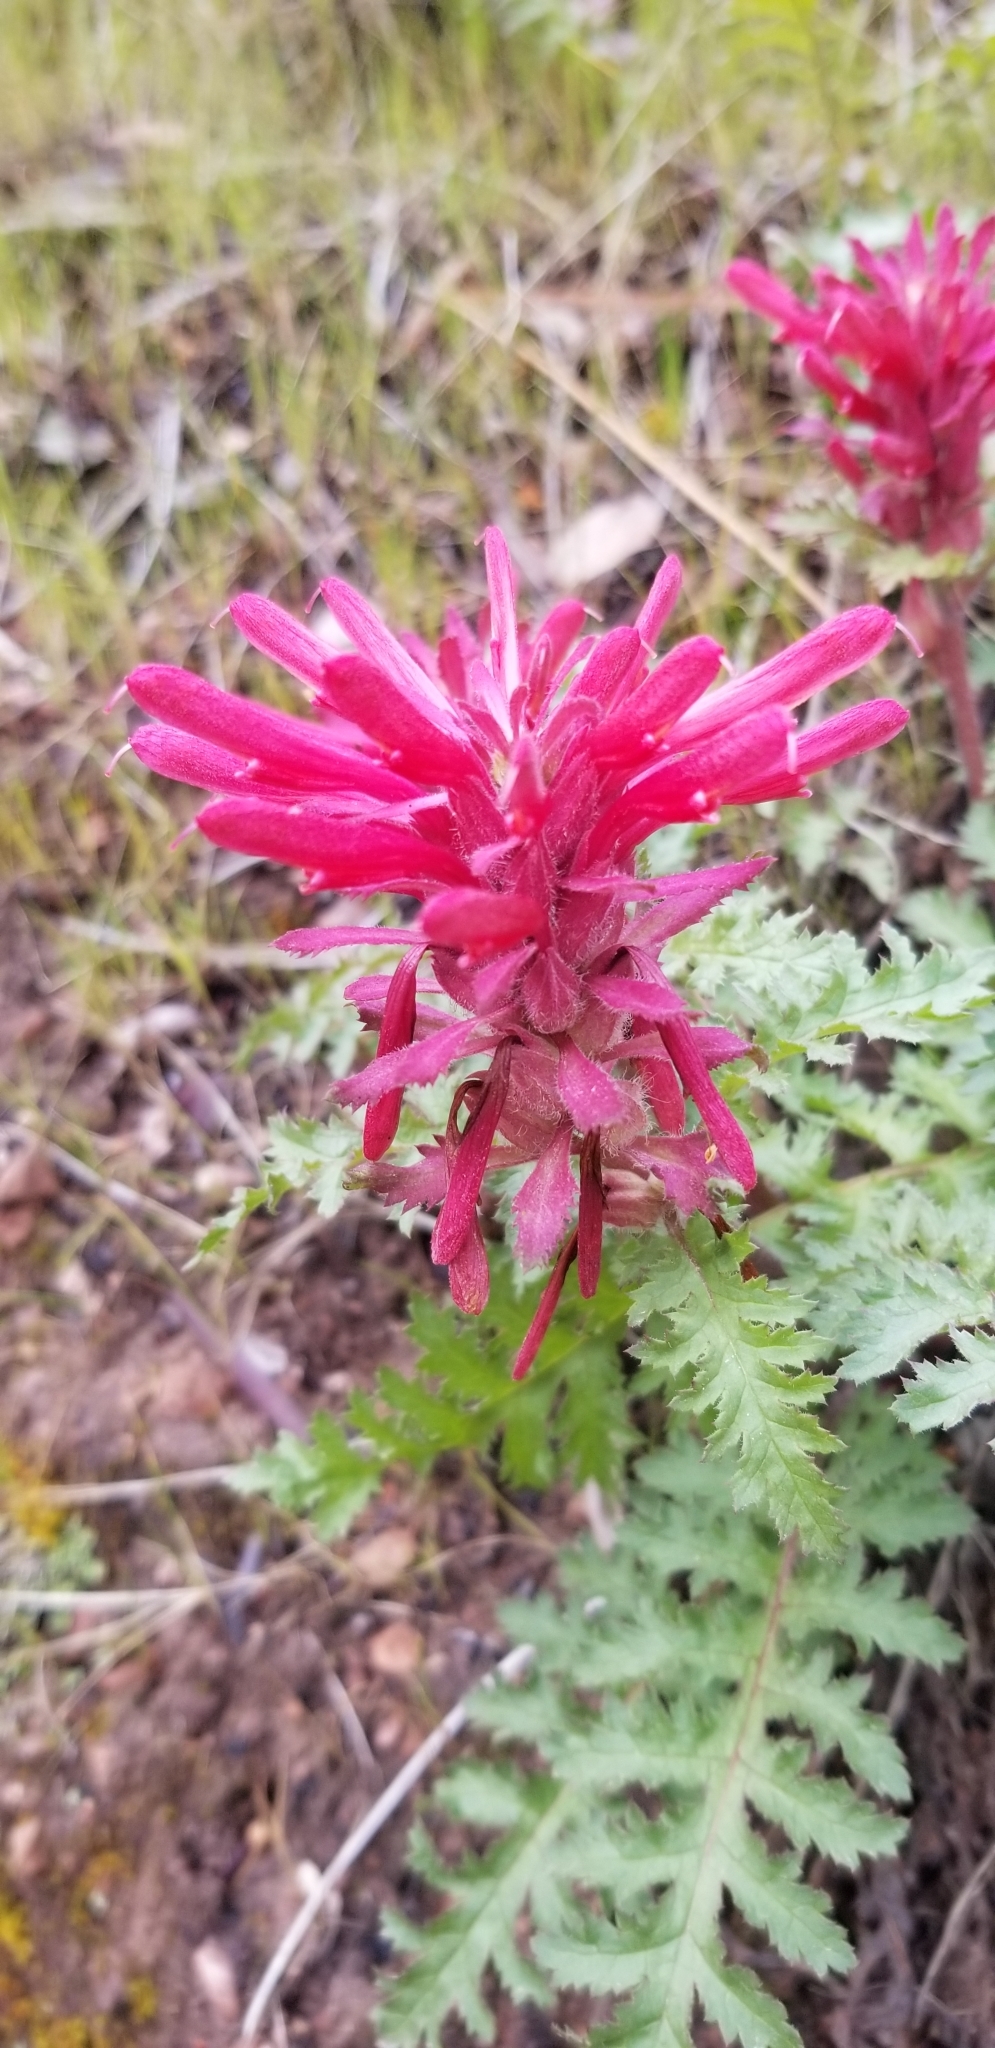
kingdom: Plantae
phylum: Tracheophyta
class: Magnoliopsida
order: Lamiales
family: Orobanchaceae
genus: Pedicularis
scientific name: Pedicularis densiflora
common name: Indian warrior
